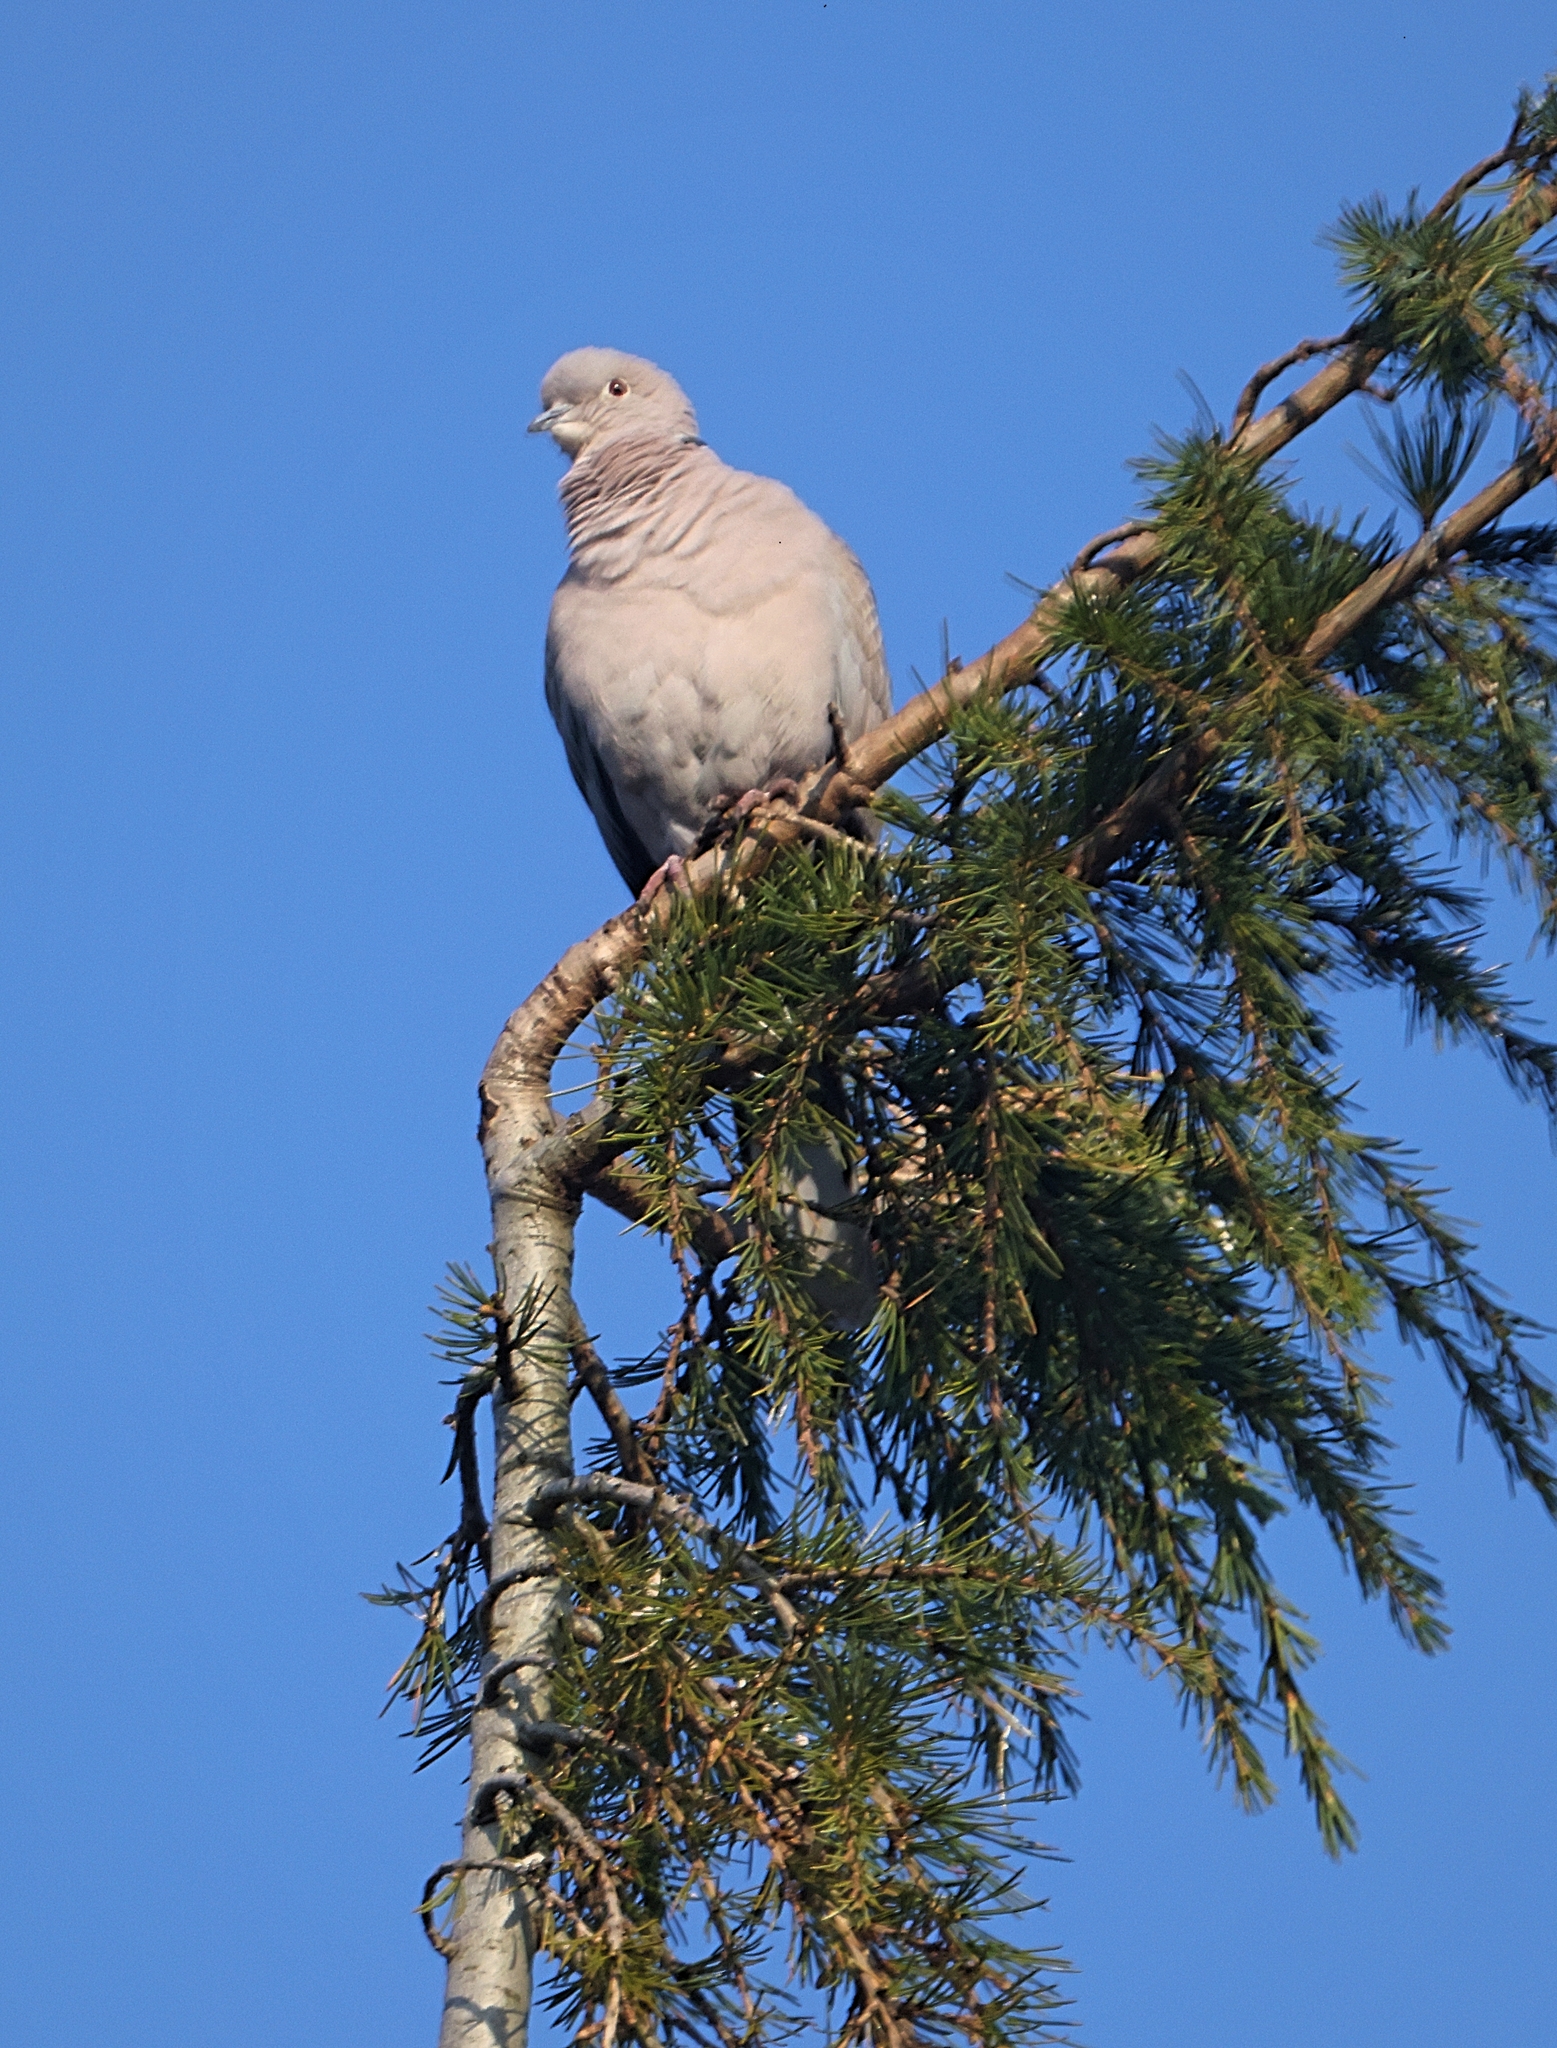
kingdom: Animalia
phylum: Chordata
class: Aves
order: Columbiformes
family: Columbidae
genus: Streptopelia
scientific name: Streptopelia decaocto
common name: Eurasian collared dove
